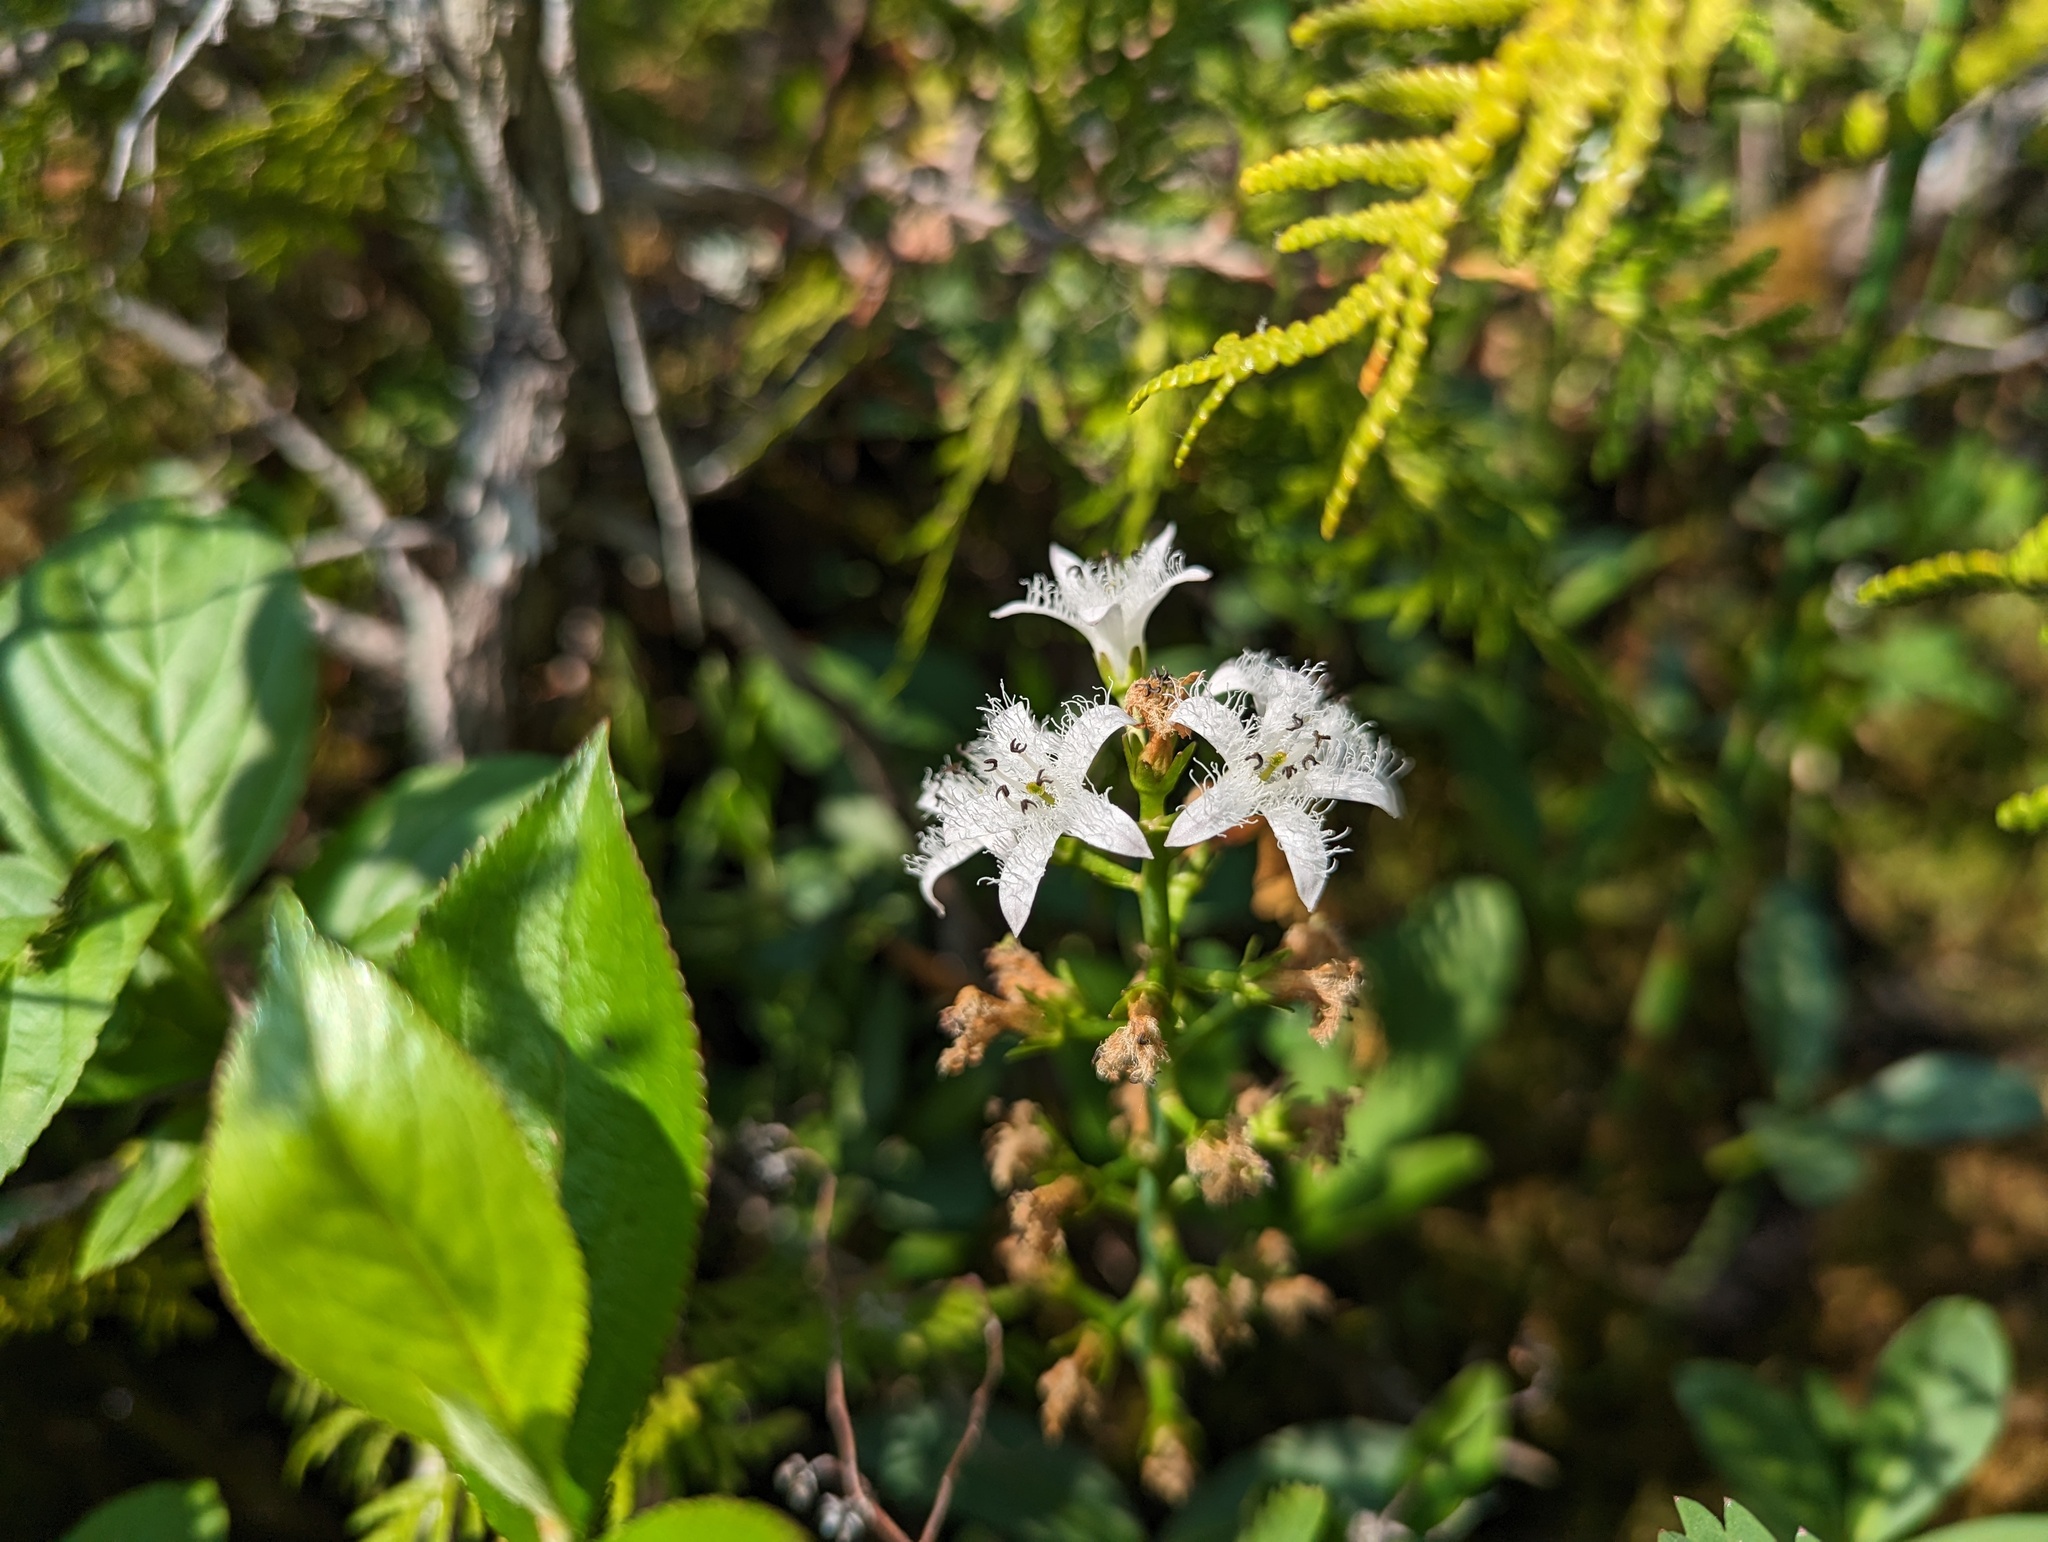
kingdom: Plantae
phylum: Tracheophyta
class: Magnoliopsida
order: Asterales
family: Menyanthaceae
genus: Menyanthes
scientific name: Menyanthes trifoliata
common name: Bogbean
